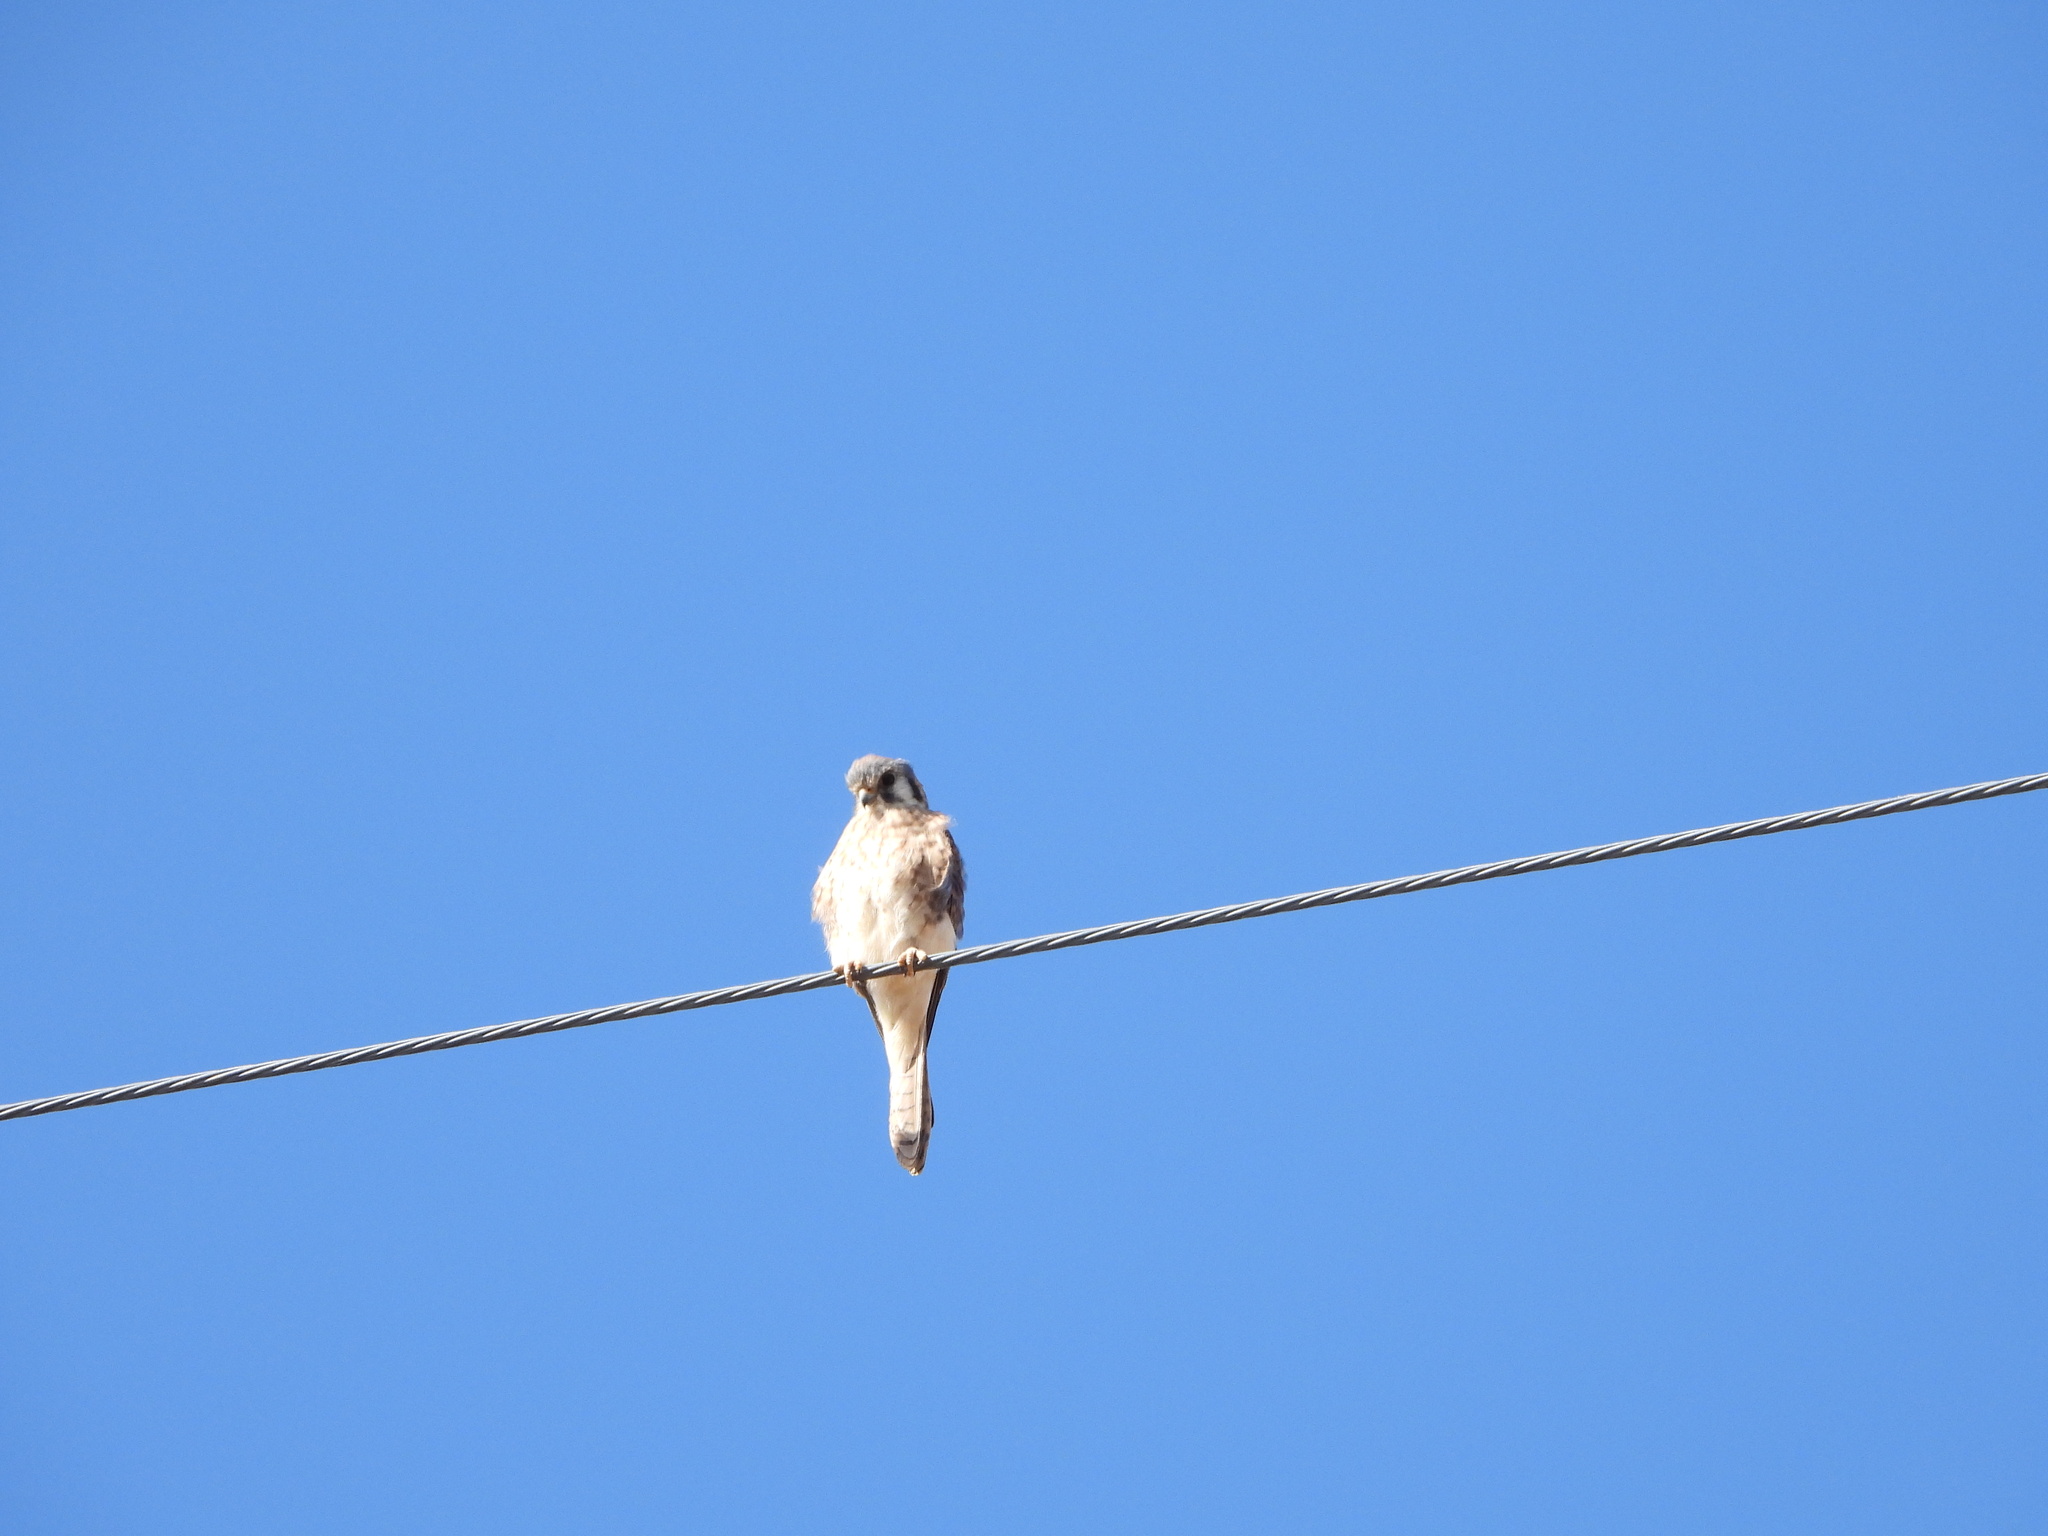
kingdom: Animalia
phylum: Chordata
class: Aves
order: Falconiformes
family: Falconidae
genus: Falco
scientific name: Falco sparverius
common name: American kestrel
